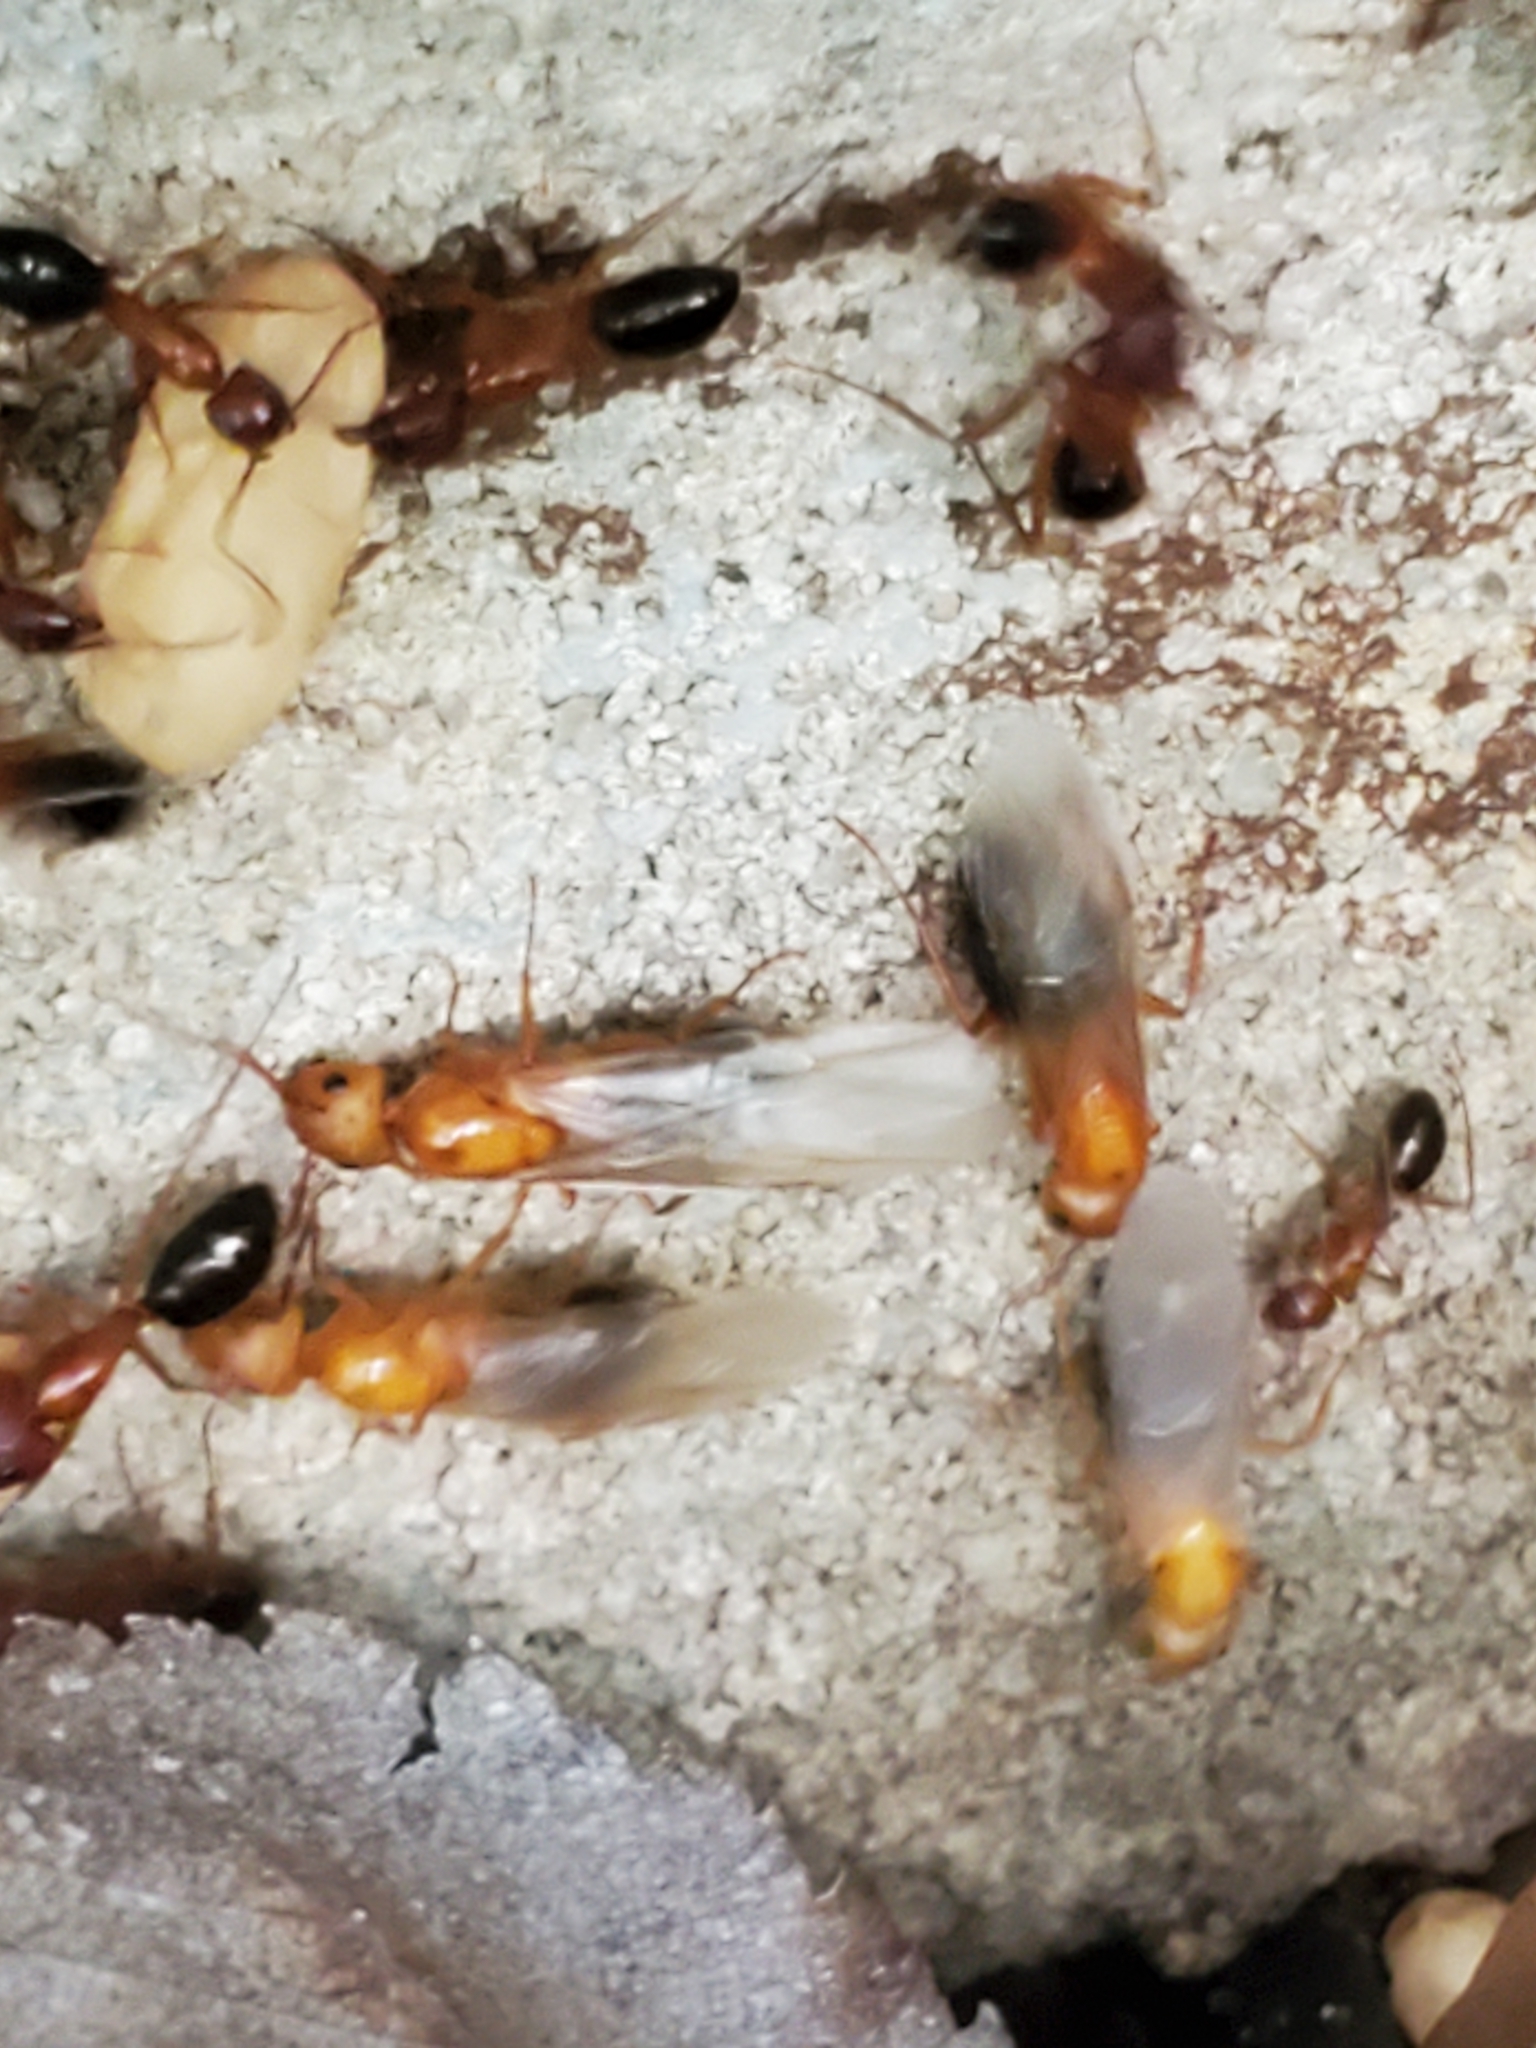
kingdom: Animalia
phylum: Arthropoda
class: Insecta
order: Hymenoptera
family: Formicidae
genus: Camponotus
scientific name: Camponotus floridanus
